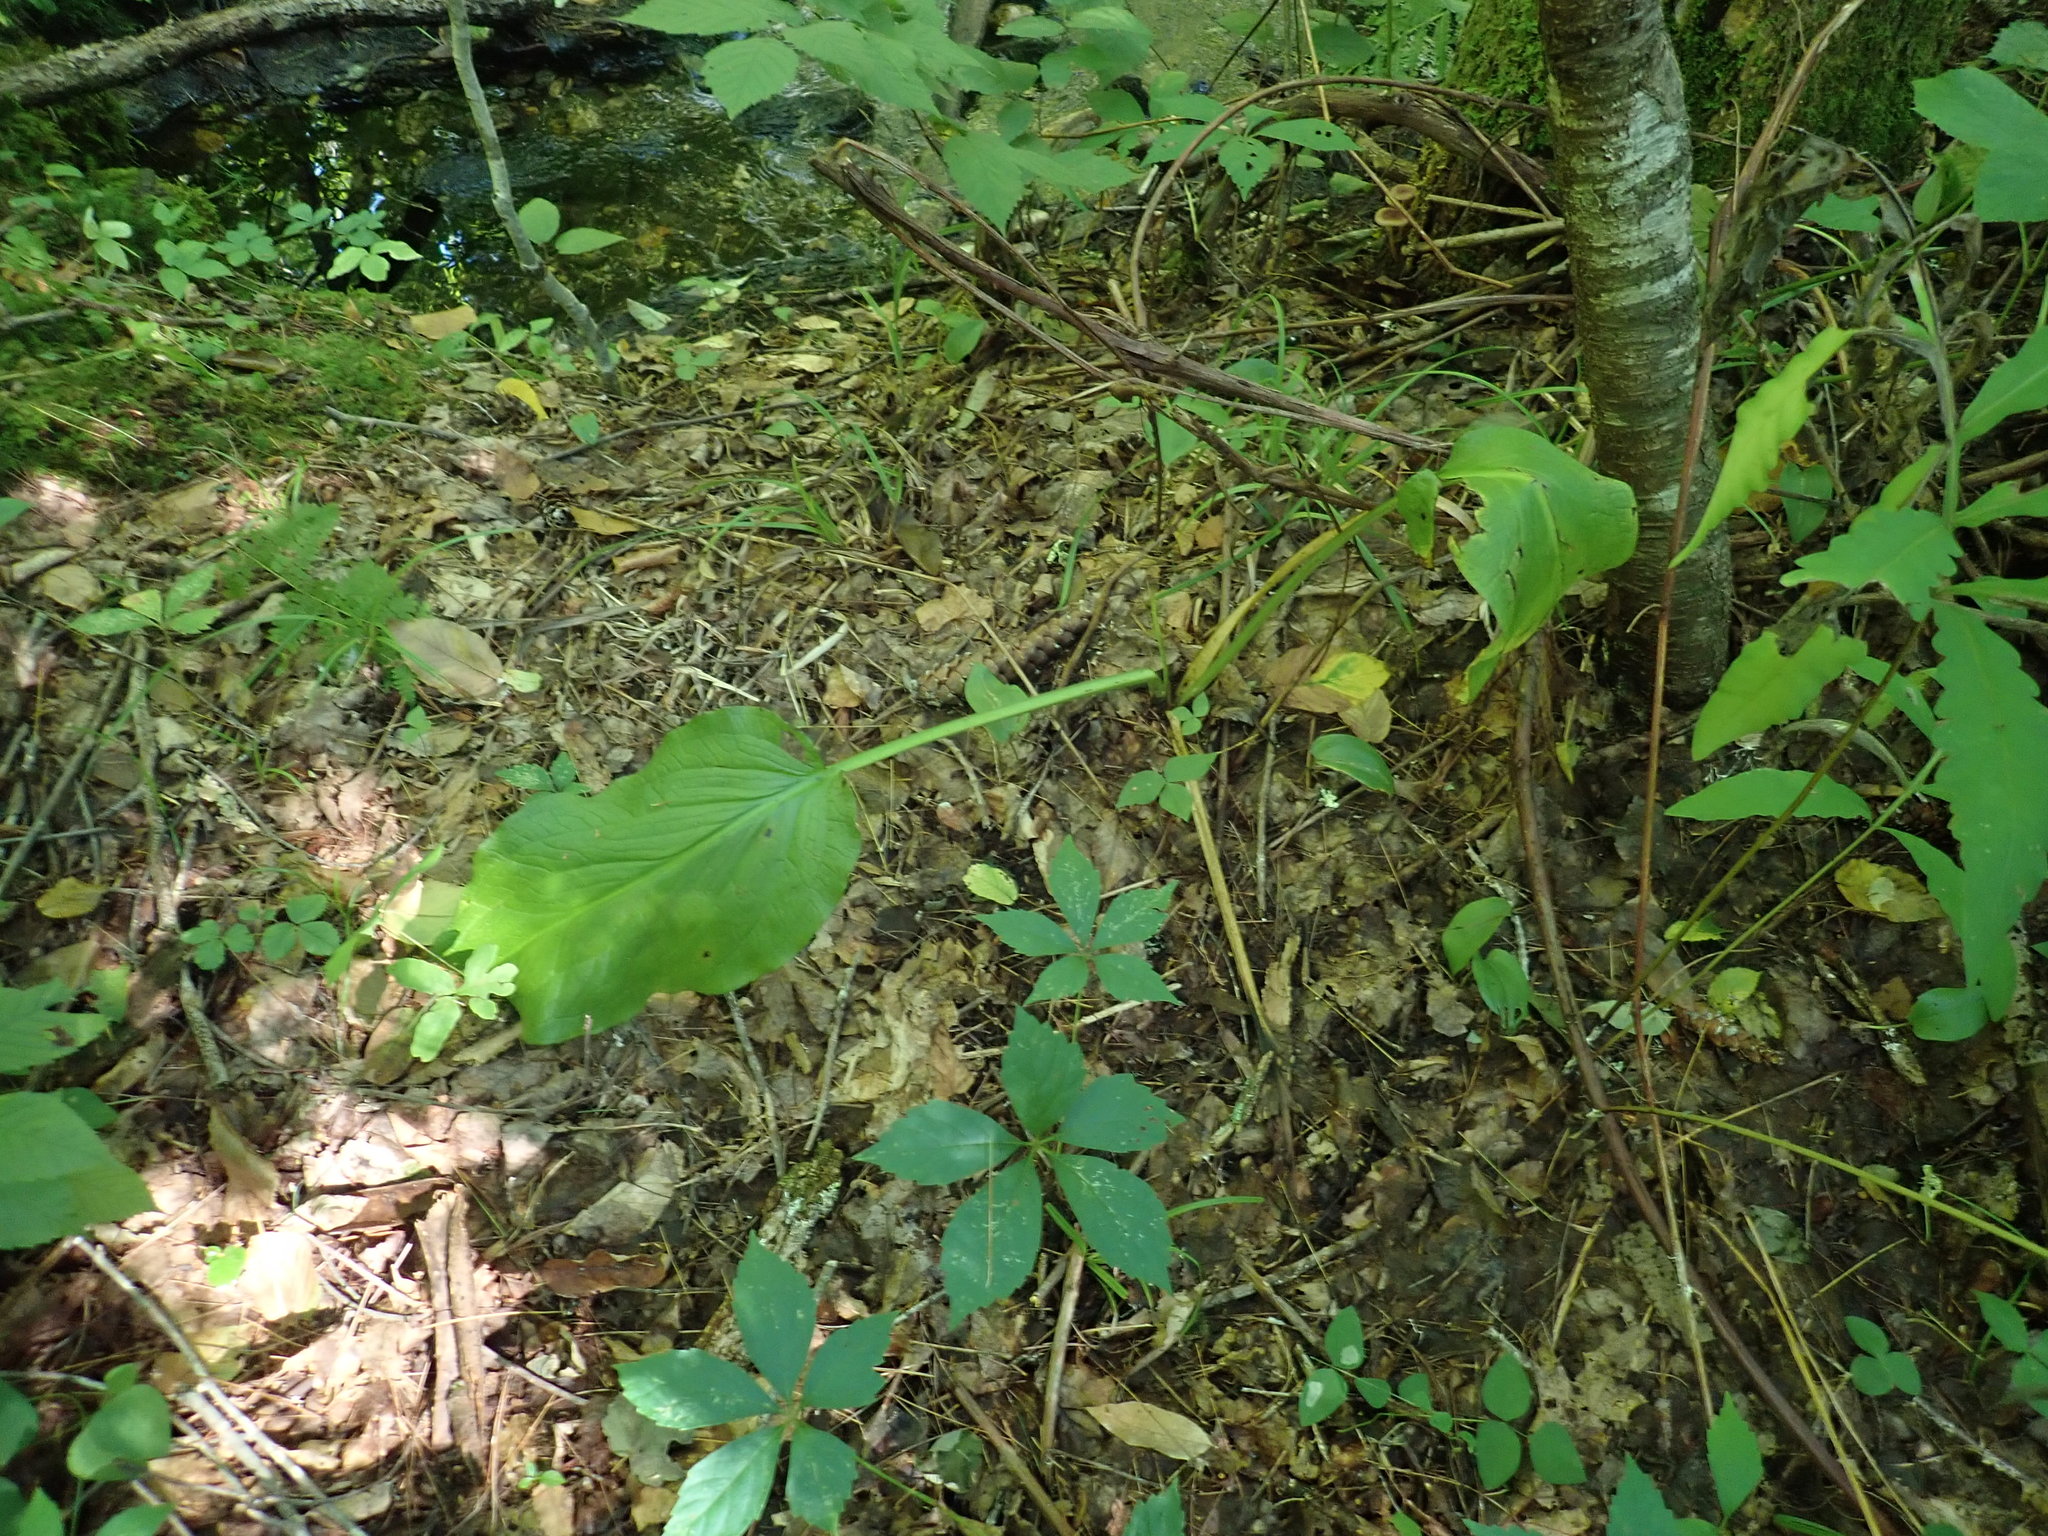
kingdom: Plantae
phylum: Tracheophyta
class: Liliopsida
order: Alismatales
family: Araceae
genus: Symplocarpus
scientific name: Symplocarpus foetidus
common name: Eastern skunk cabbage
